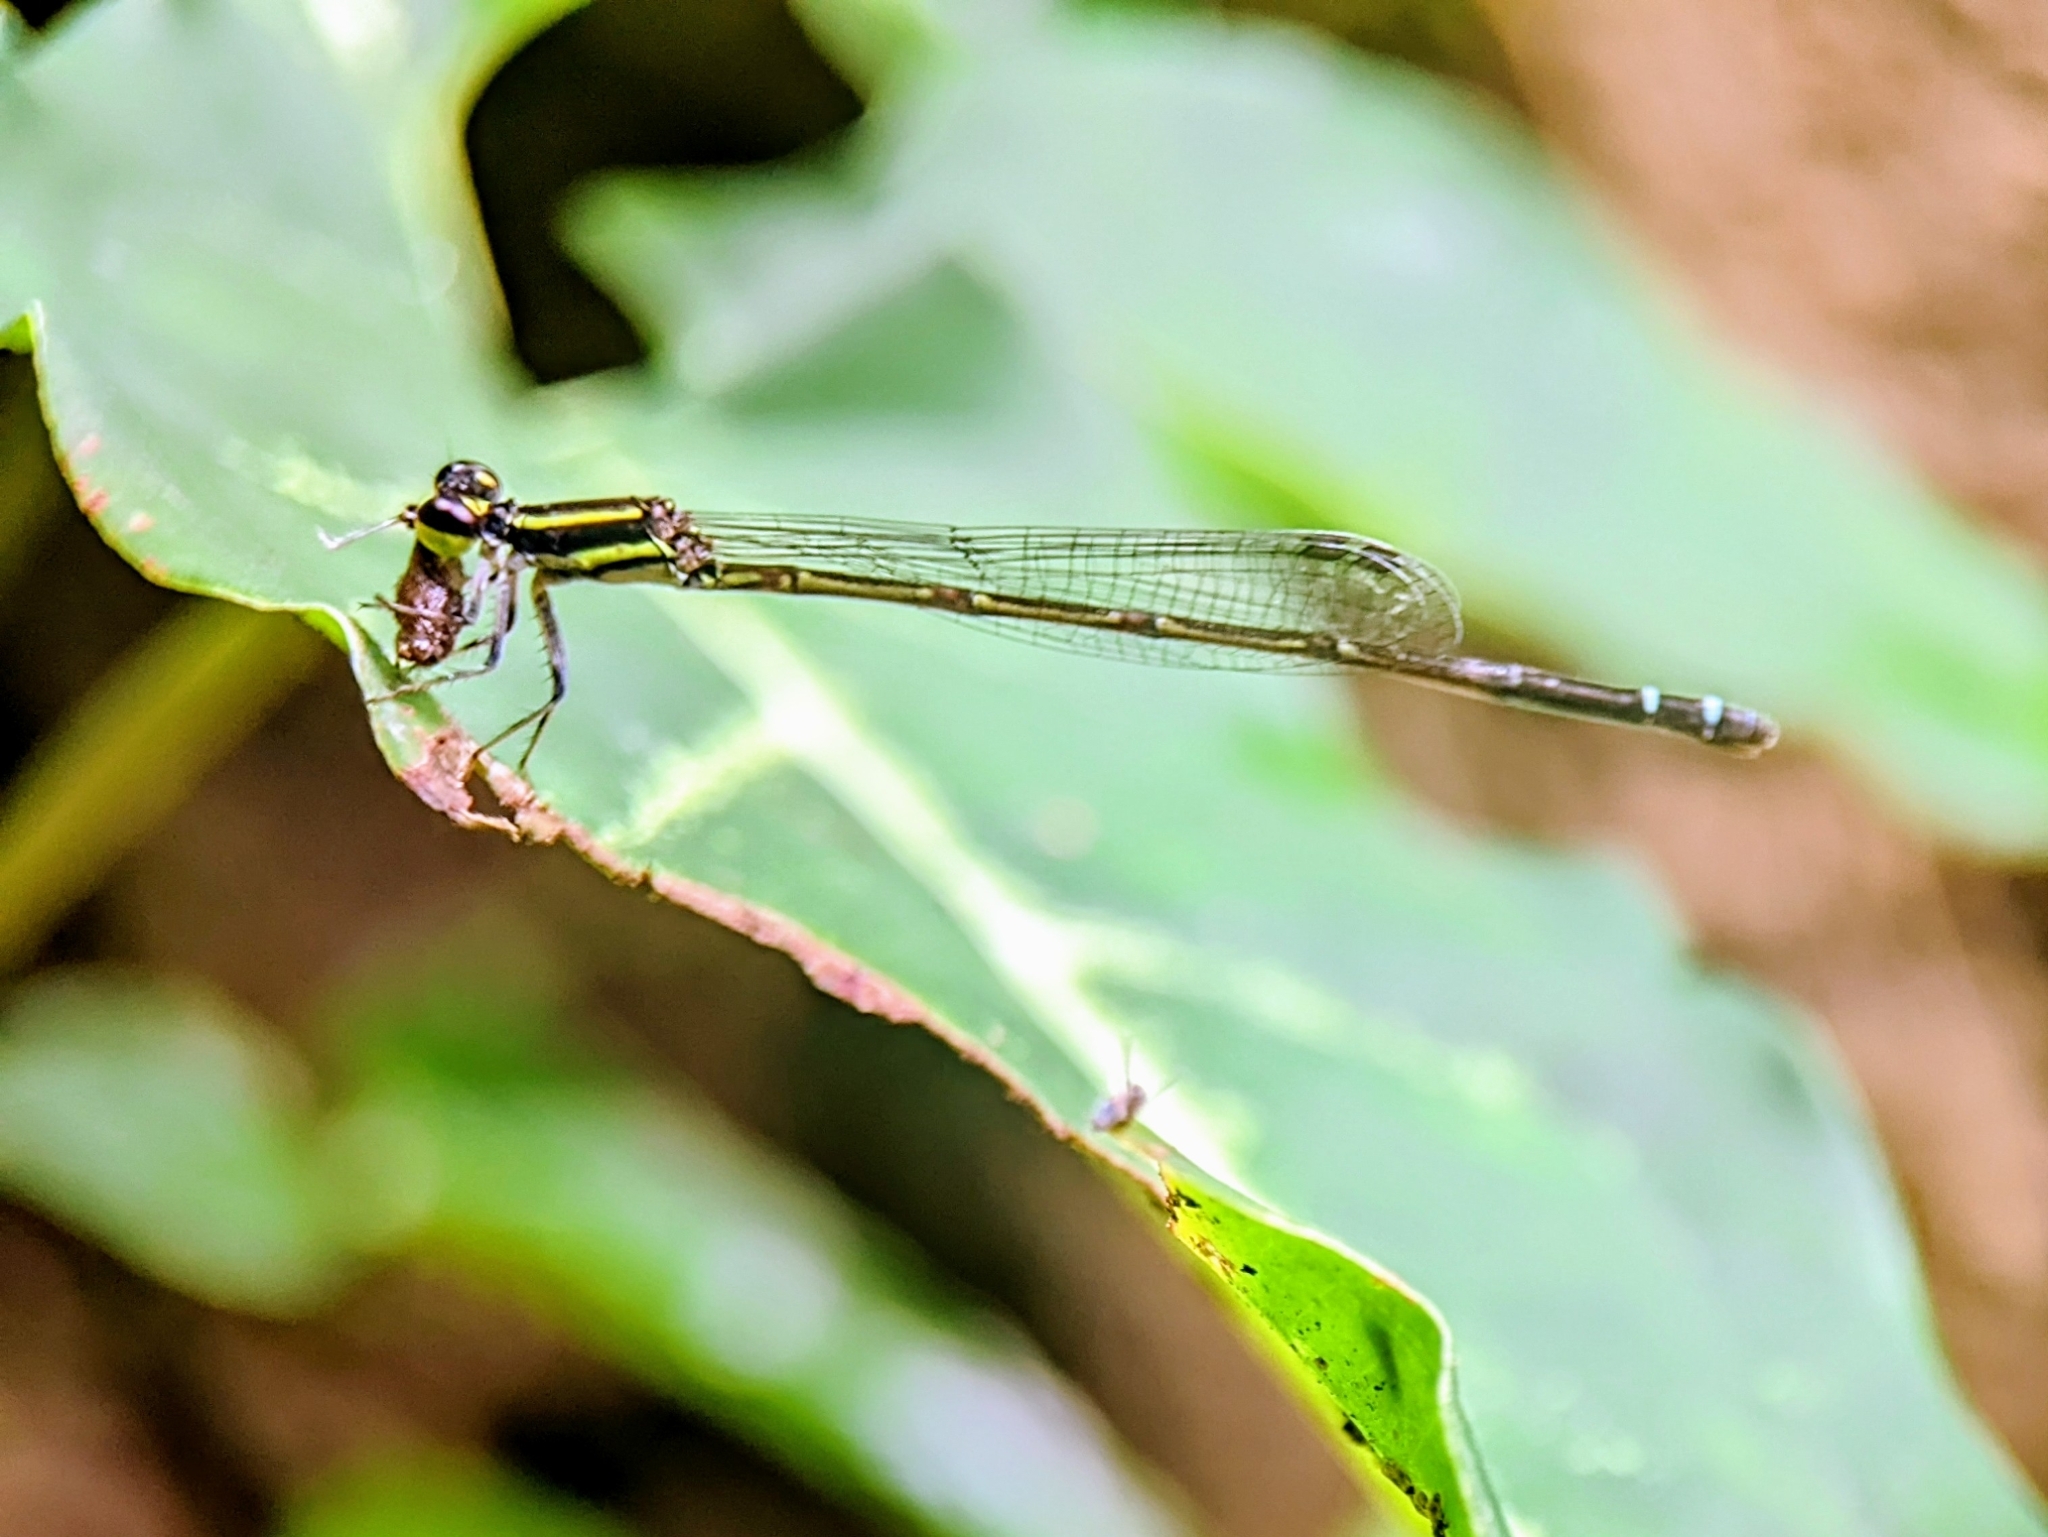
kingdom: Animalia
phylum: Arthropoda
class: Insecta
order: Odonata
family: Coenagrionidae
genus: Mortonagrion
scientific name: Mortonagrion aborense
